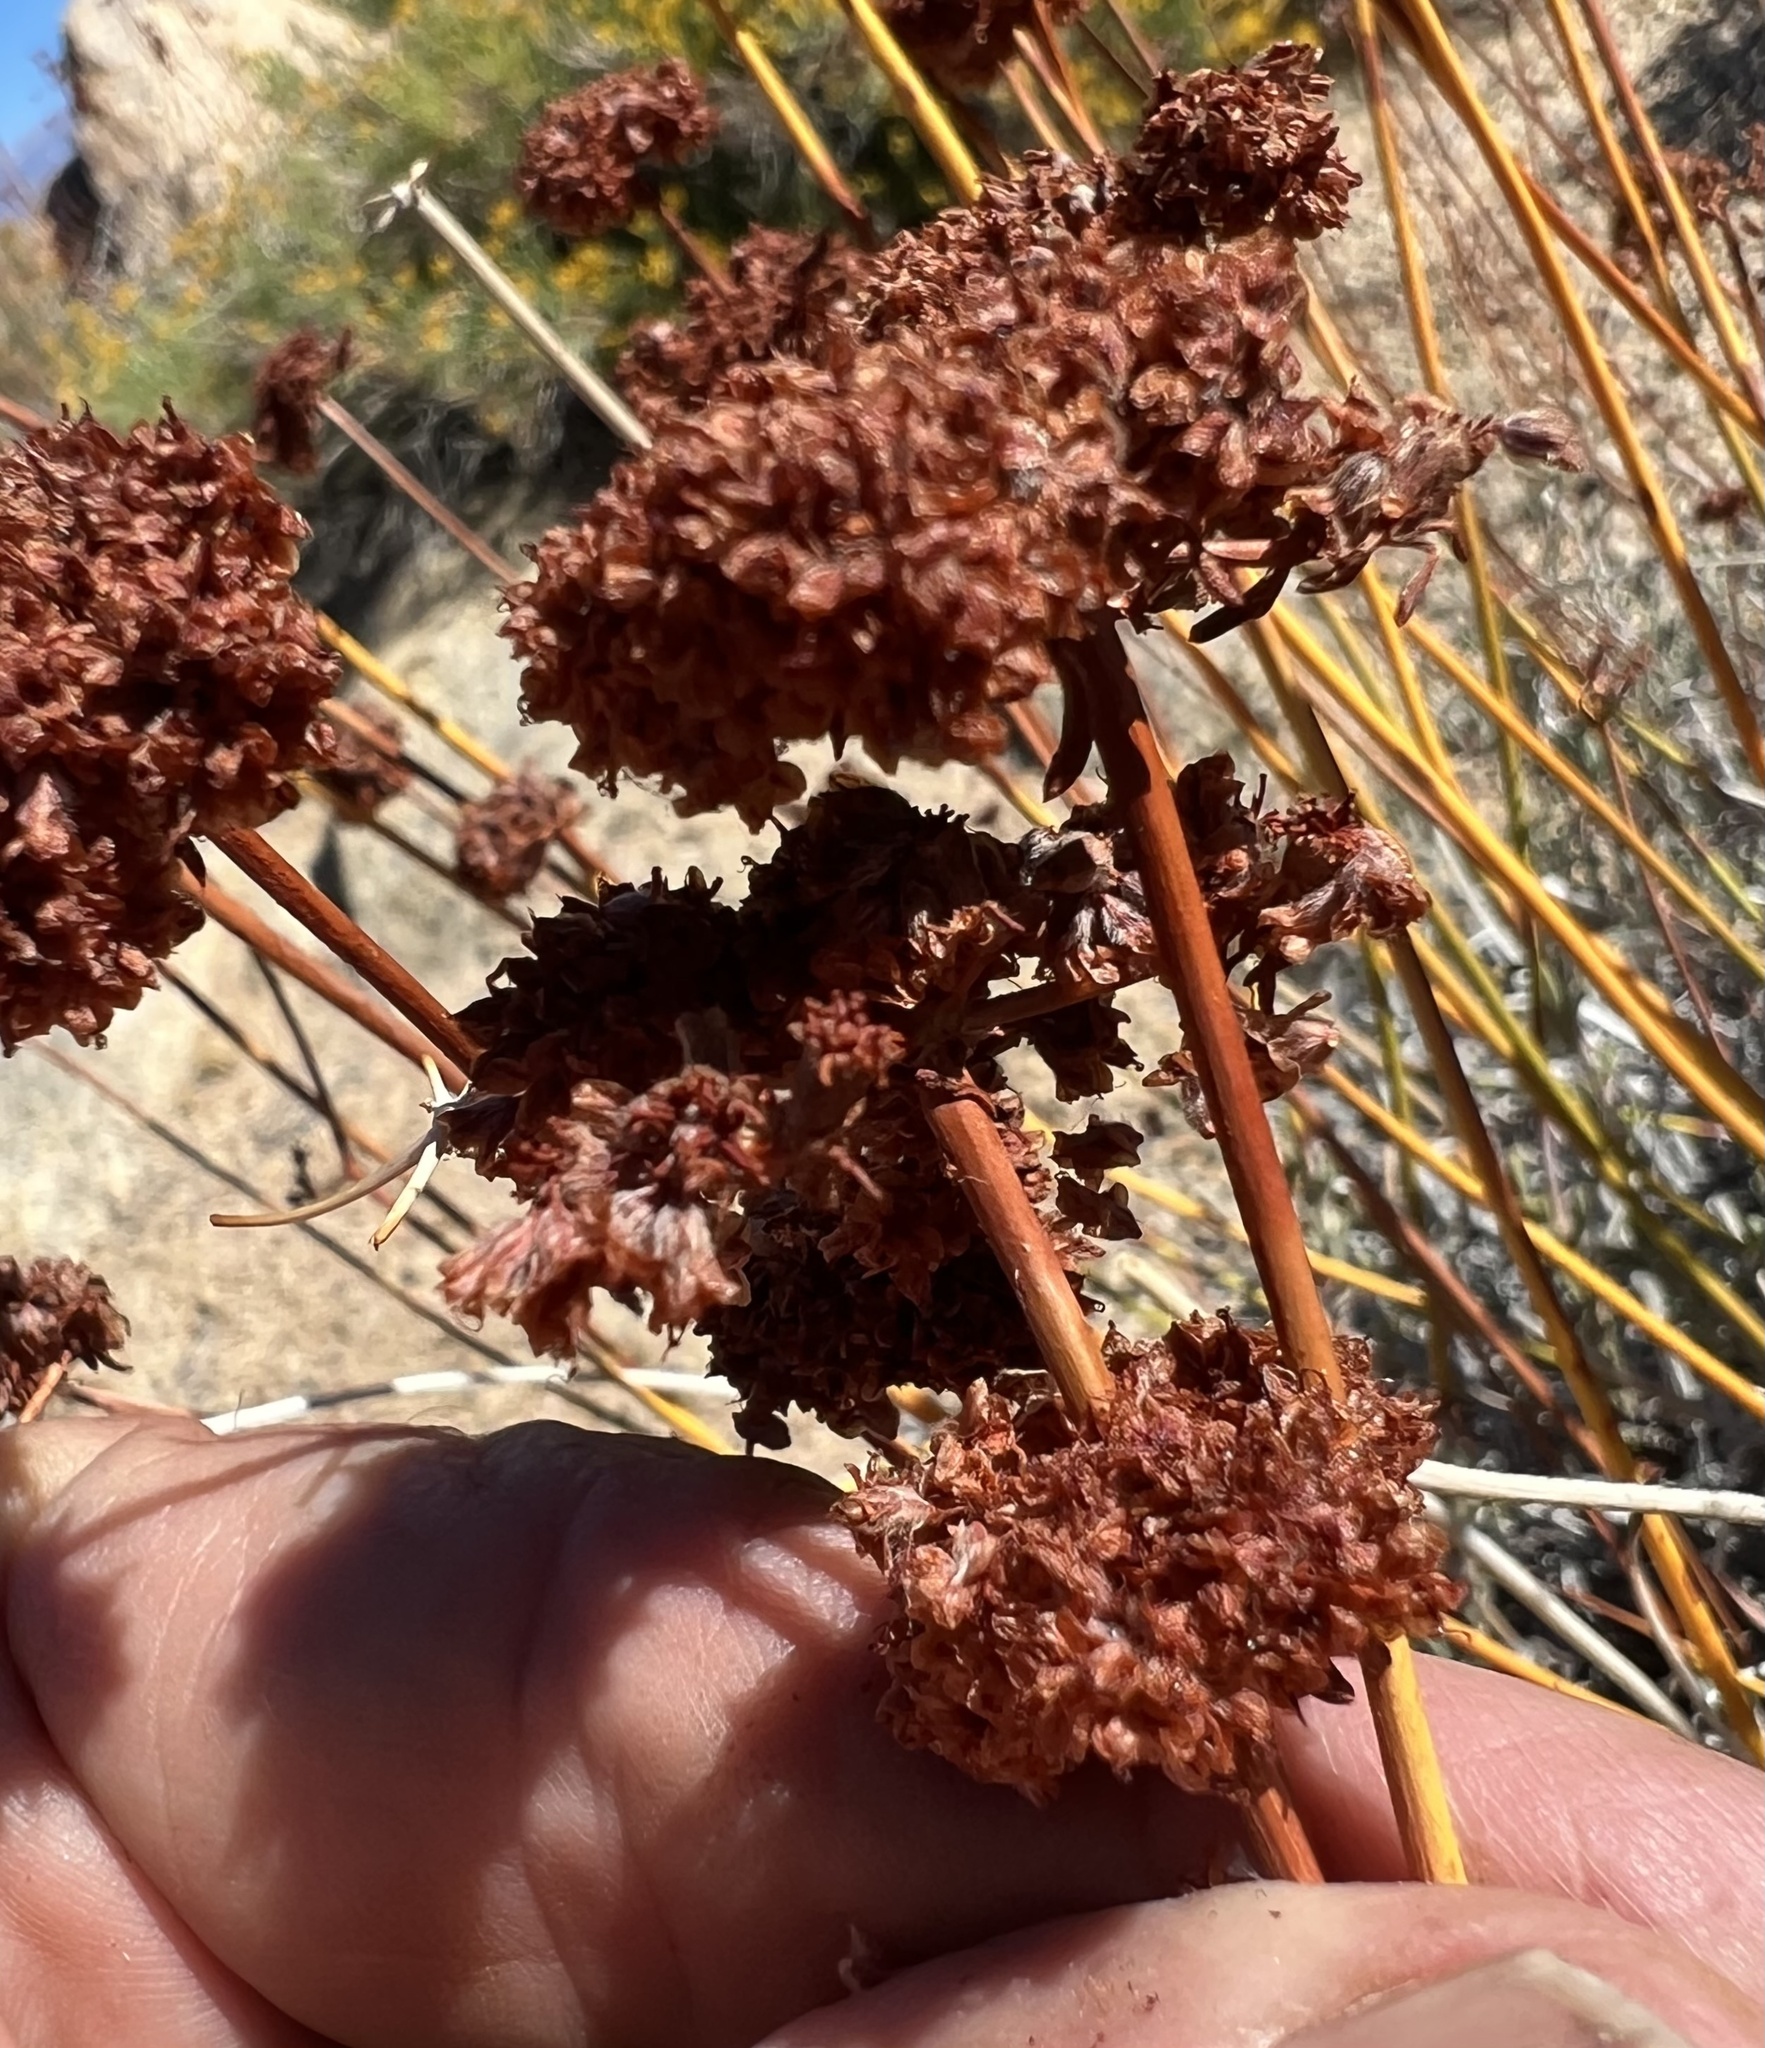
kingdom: Plantae
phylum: Tracheophyta
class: Magnoliopsida
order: Caryophyllales
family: Polygonaceae
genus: Eriogonum
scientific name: Eriogonum fasciculatum
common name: California wild buckwheat
